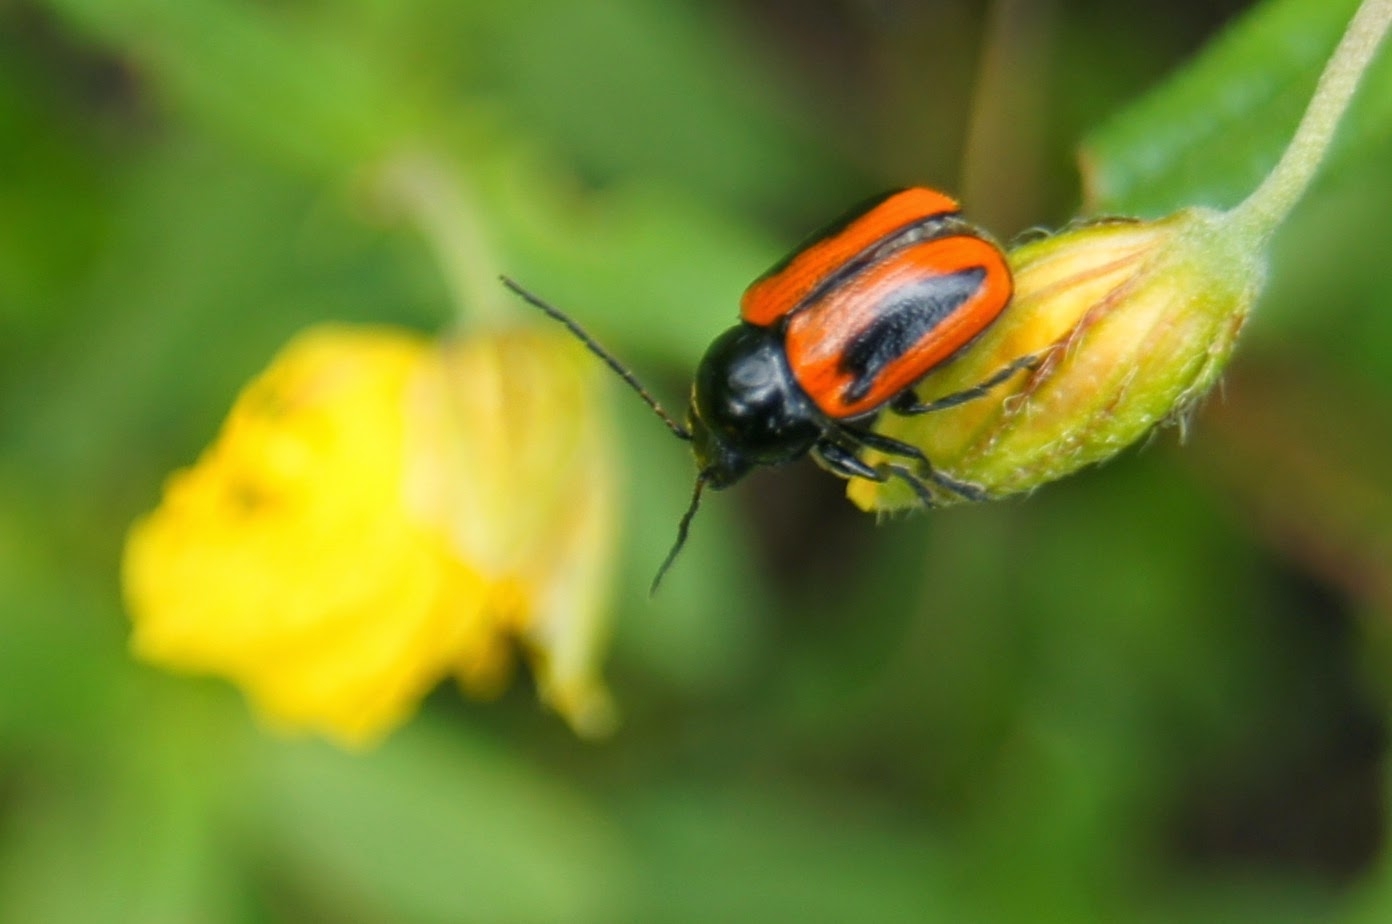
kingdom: Animalia
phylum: Arthropoda
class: Insecta
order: Coleoptera
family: Chrysomelidae
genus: Chiridopsis
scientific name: Chiridopsis bipunctata
